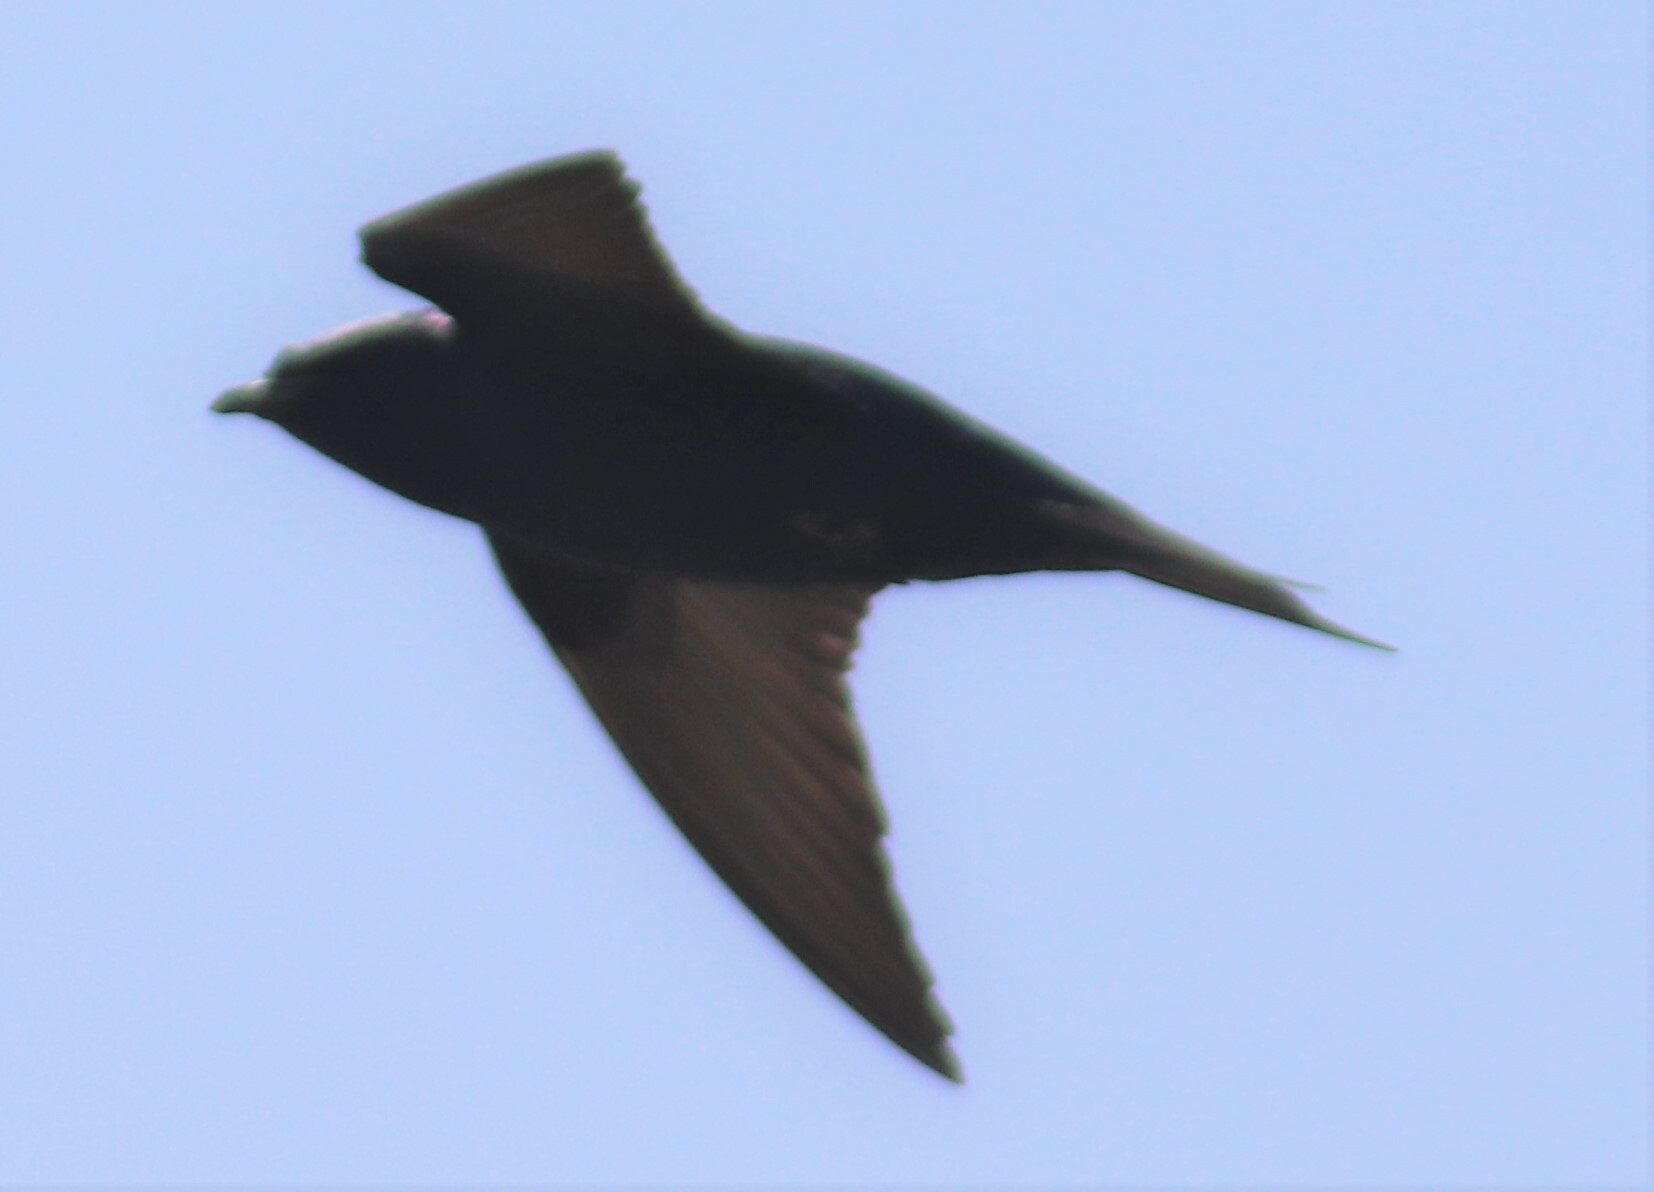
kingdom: Animalia
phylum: Chordata
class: Aves
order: Passeriformes
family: Hirundinidae
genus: Progne
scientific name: Progne subis
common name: Purple martin
